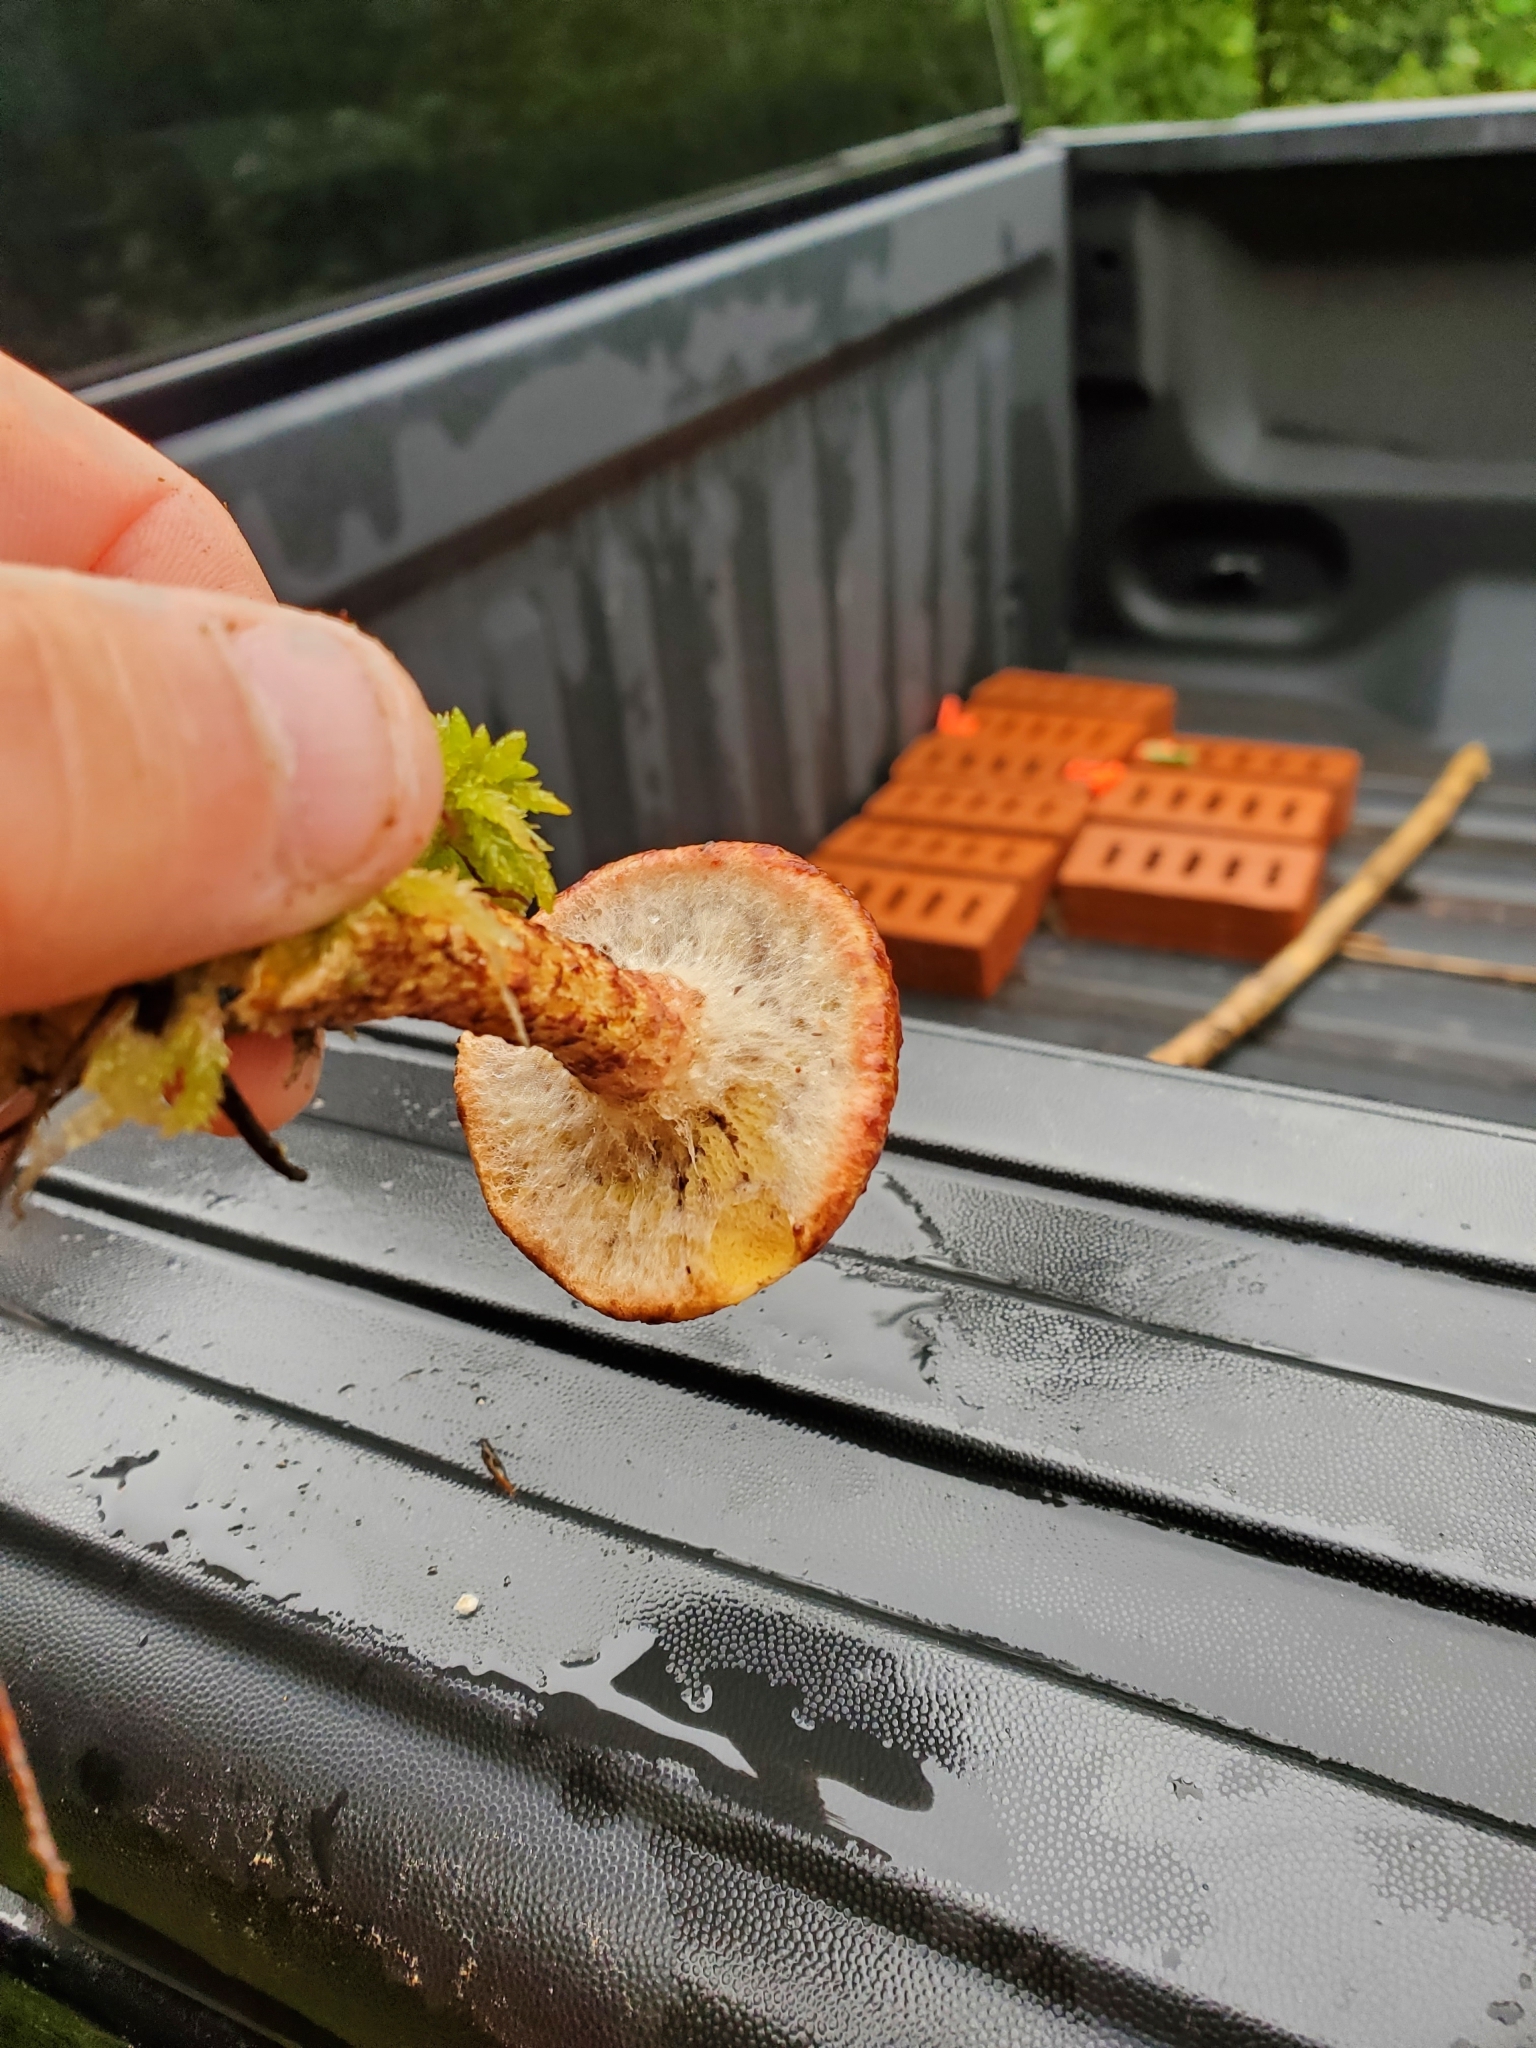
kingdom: Fungi
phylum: Basidiomycota
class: Agaricomycetes
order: Boletales
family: Suillaceae
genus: Suillus
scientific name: Suillus spraguei
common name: Painted suillus
